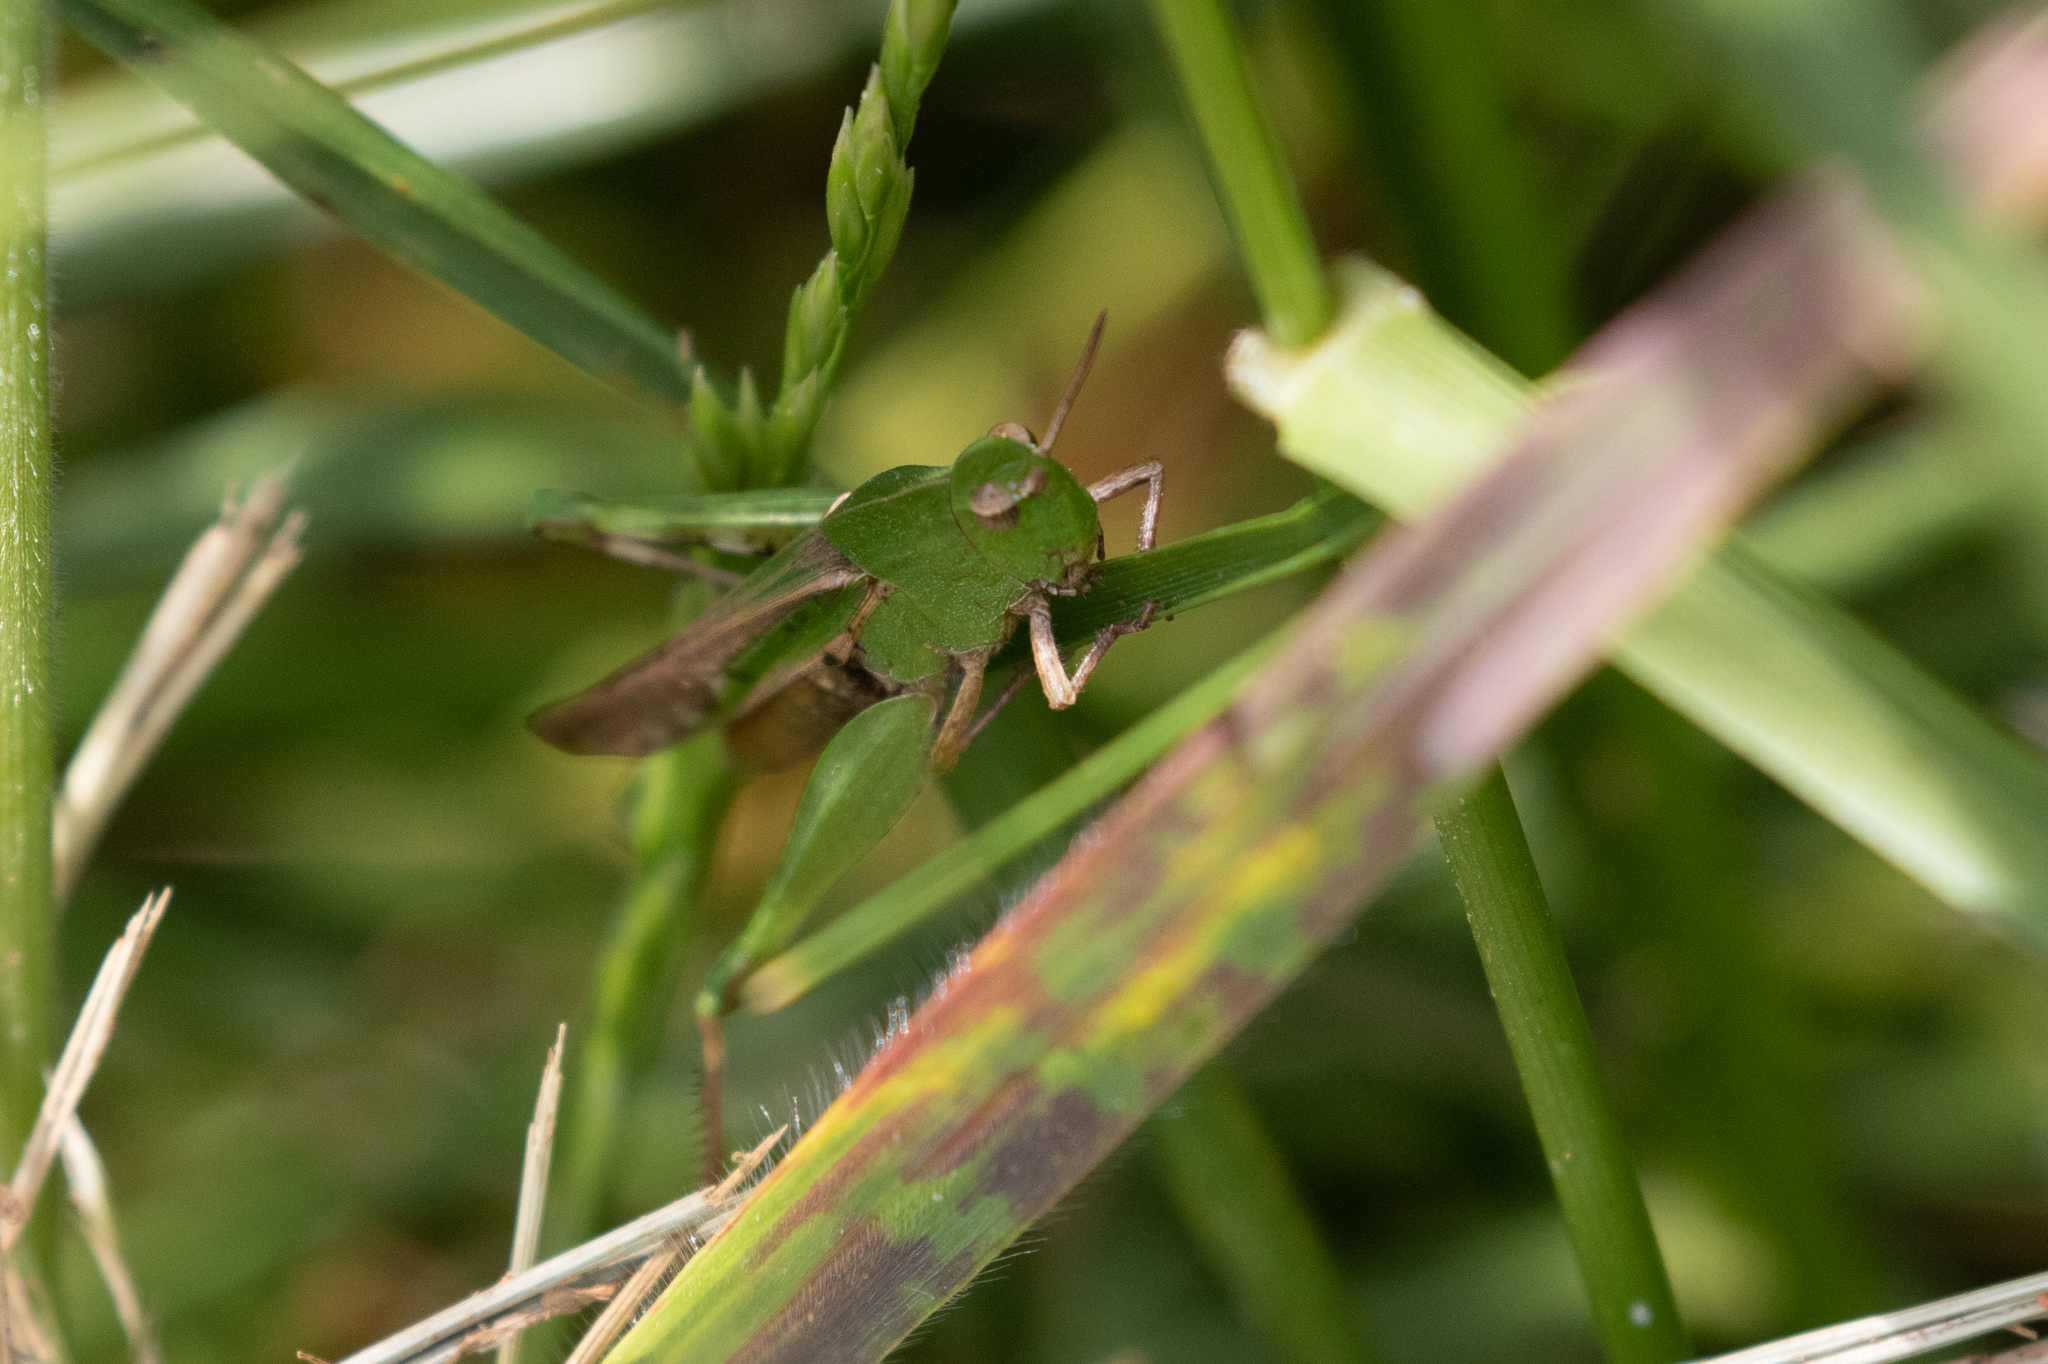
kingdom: Animalia
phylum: Arthropoda
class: Insecta
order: Orthoptera
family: Acrididae
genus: Chortophaga
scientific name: Chortophaga viridifasciata
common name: Green-striped grasshopper
